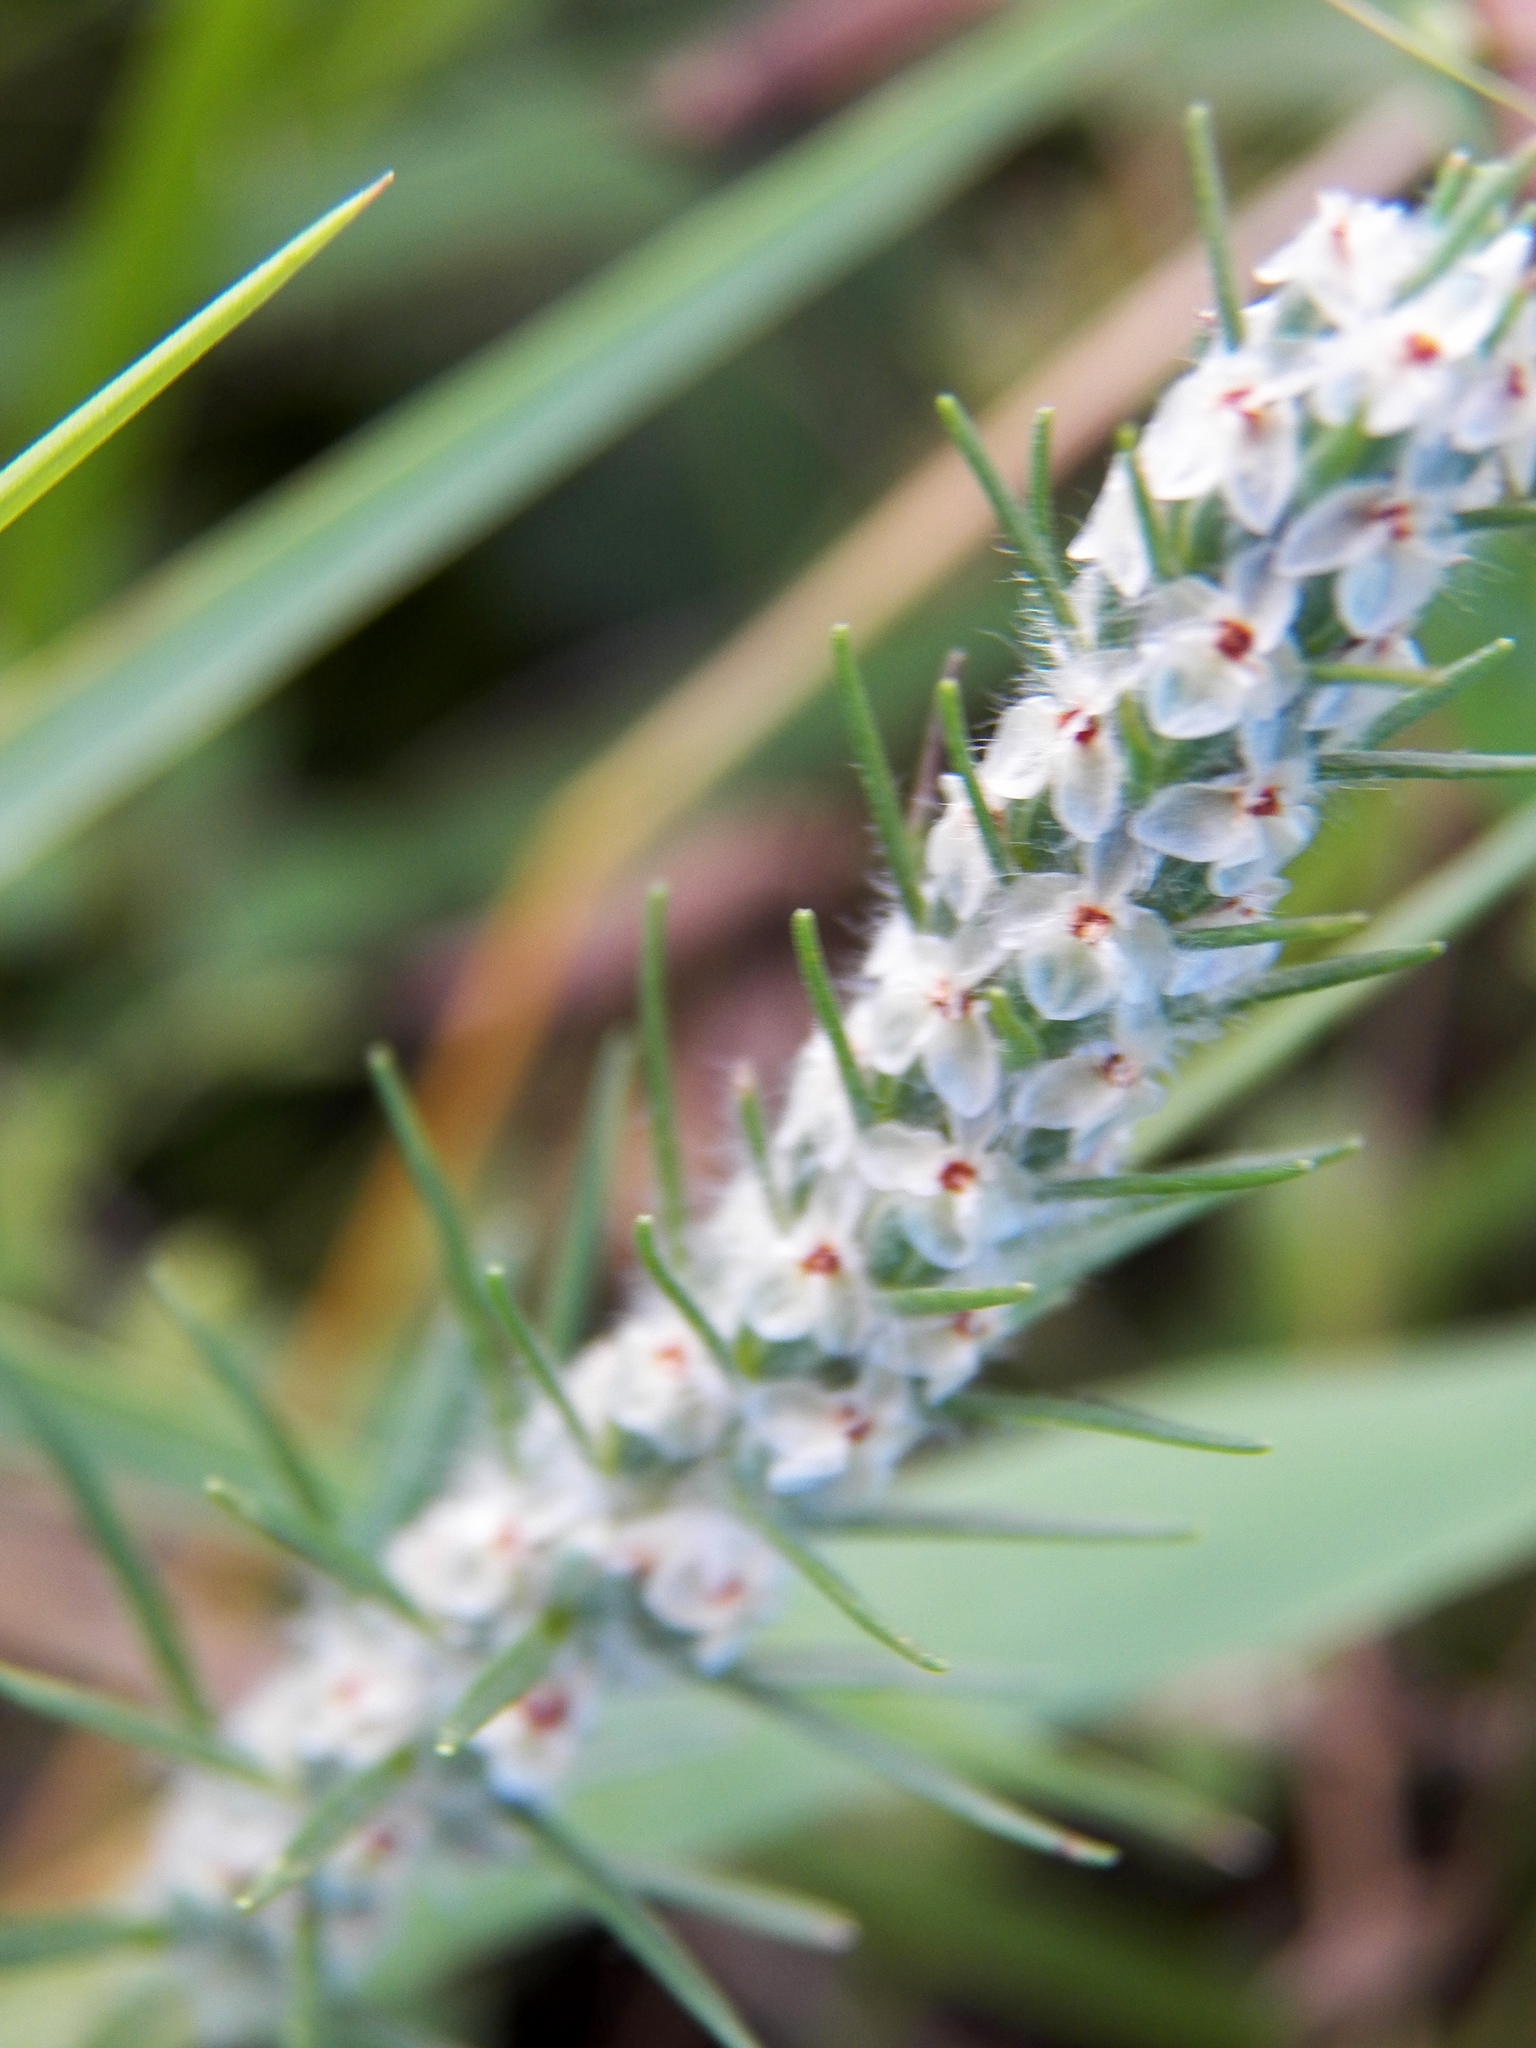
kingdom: Plantae
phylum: Tracheophyta
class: Magnoliopsida
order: Lamiales
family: Plantaginaceae
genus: Plantago
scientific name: Plantago aristata
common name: Bracted plantain
